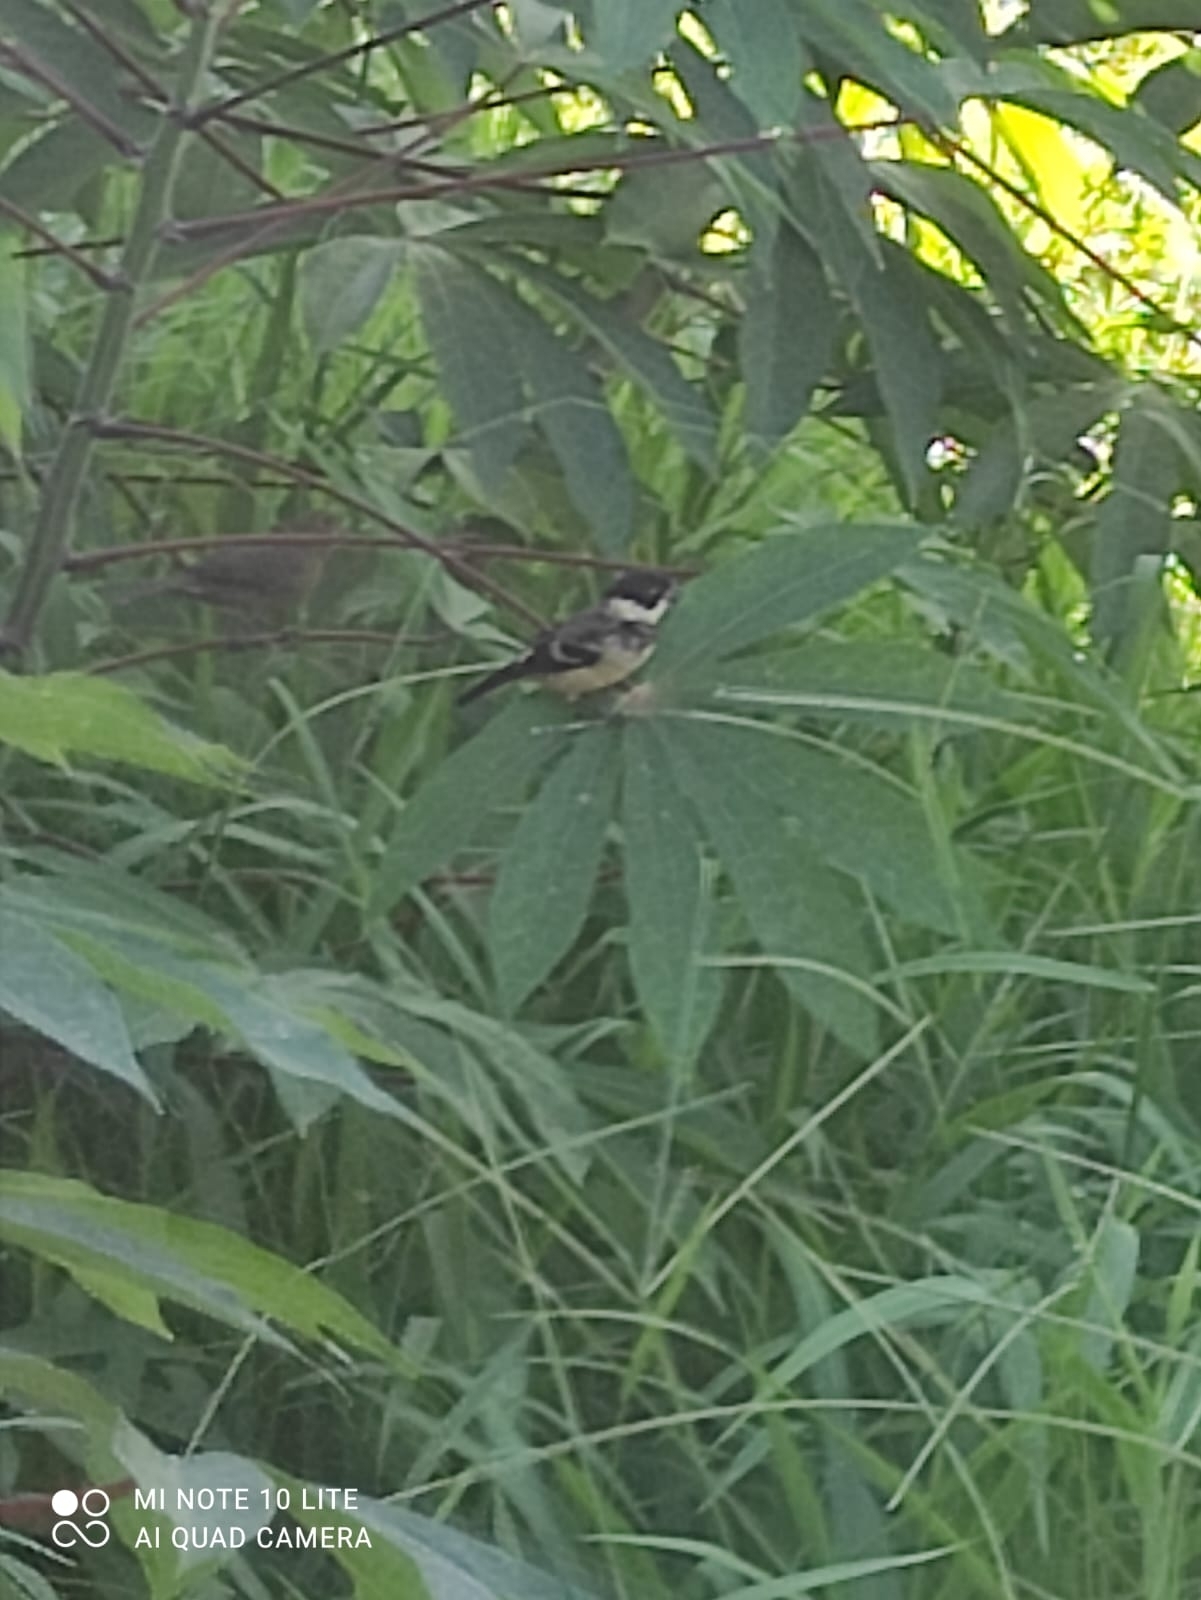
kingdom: Animalia
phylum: Chordata
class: Aves
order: Passeriformes
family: Thraupidae
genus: Sporophila
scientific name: Sporophila morelleti
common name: Morelet's seedeater
